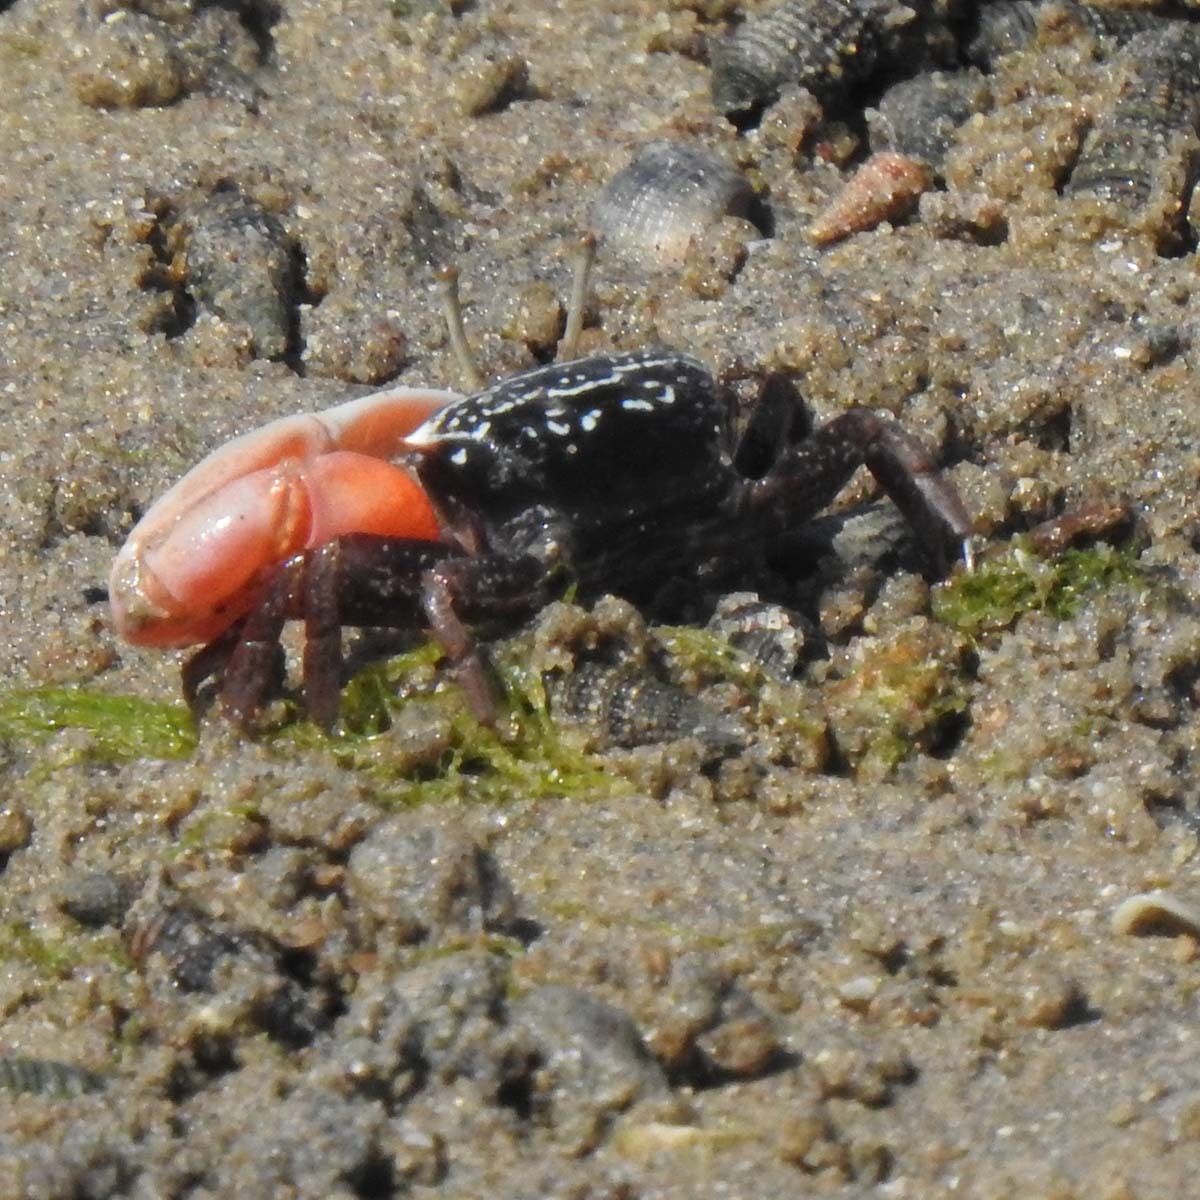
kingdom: Animalia
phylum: Arthropoda
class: Malacostraca
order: Decapoda
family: Ocypodidae
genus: Austruca
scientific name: Austruca annulipes
